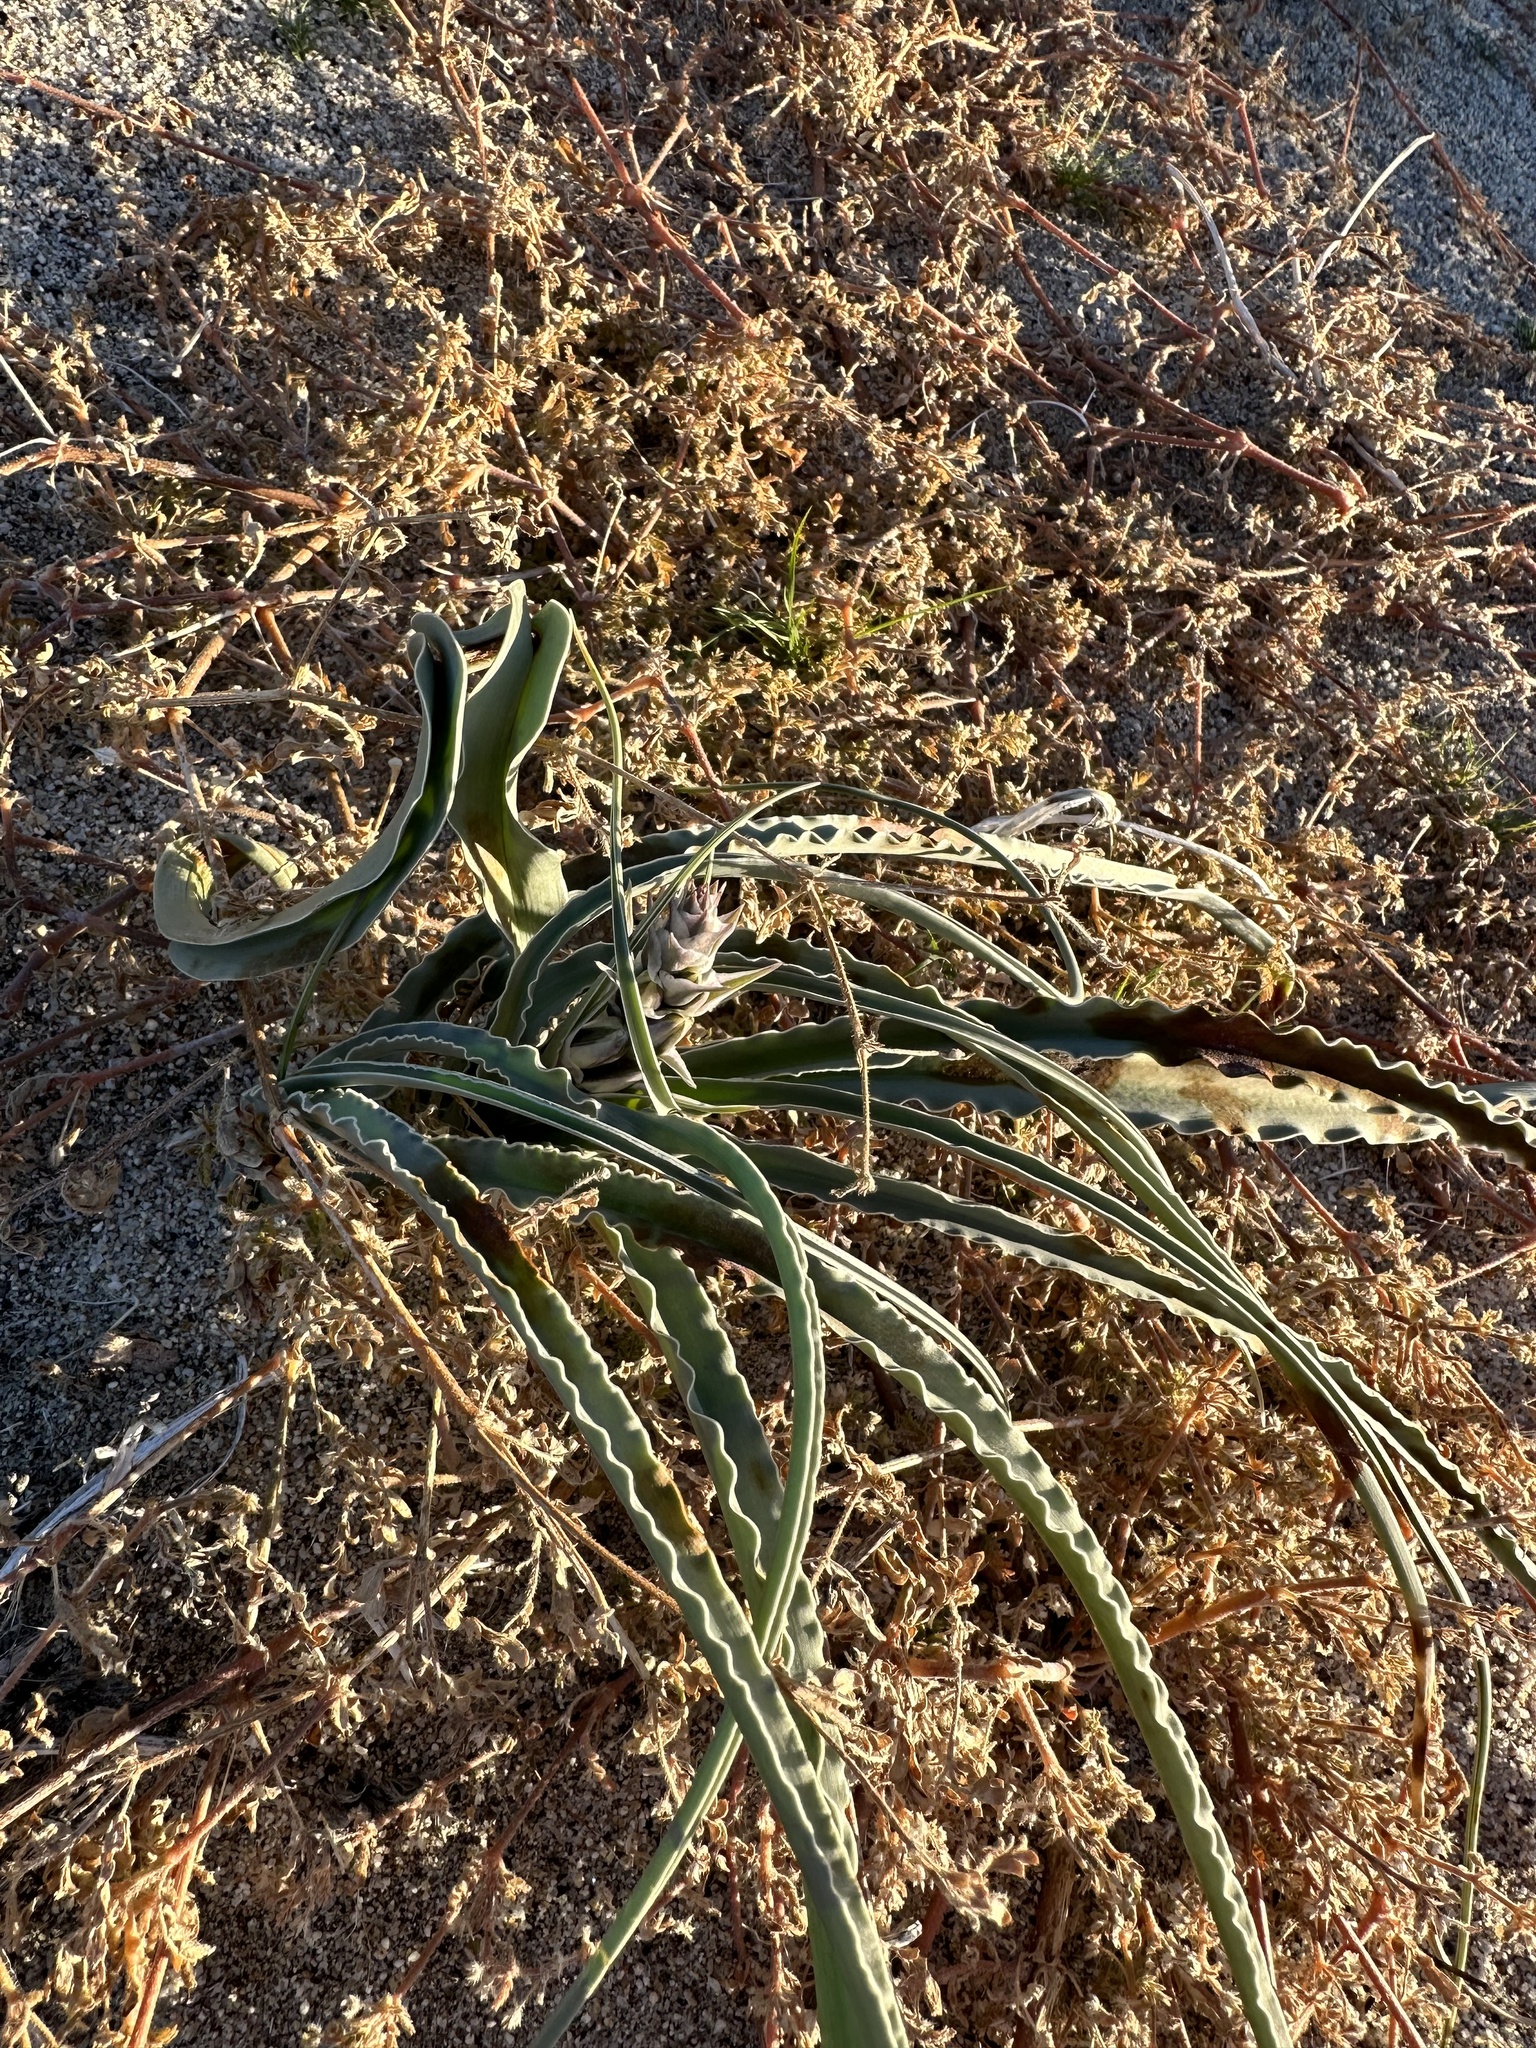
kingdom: Plantae
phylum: Tracheophyta
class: Liliopsida
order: Asparagales
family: Asparagaceae
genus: Hesperocallis
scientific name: Hesperocallis undulata
